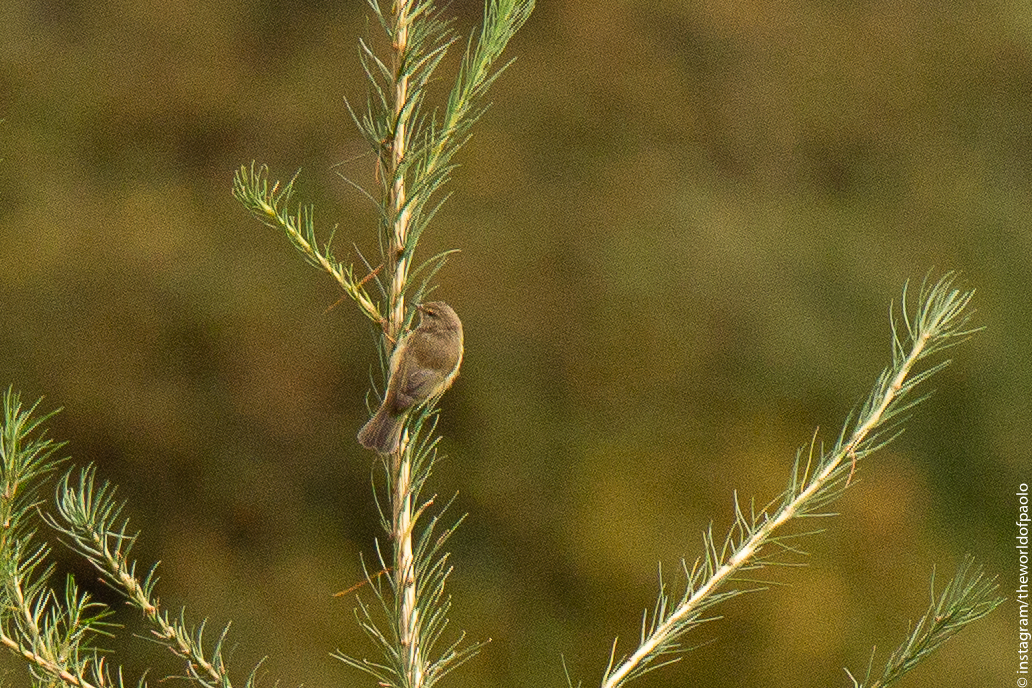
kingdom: Animalia
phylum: Chordata
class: Aves
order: Passeriformes
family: Phylloscopidae
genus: Phylloscopus
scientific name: Phylloscopus collybita
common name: Common chiffchaff
